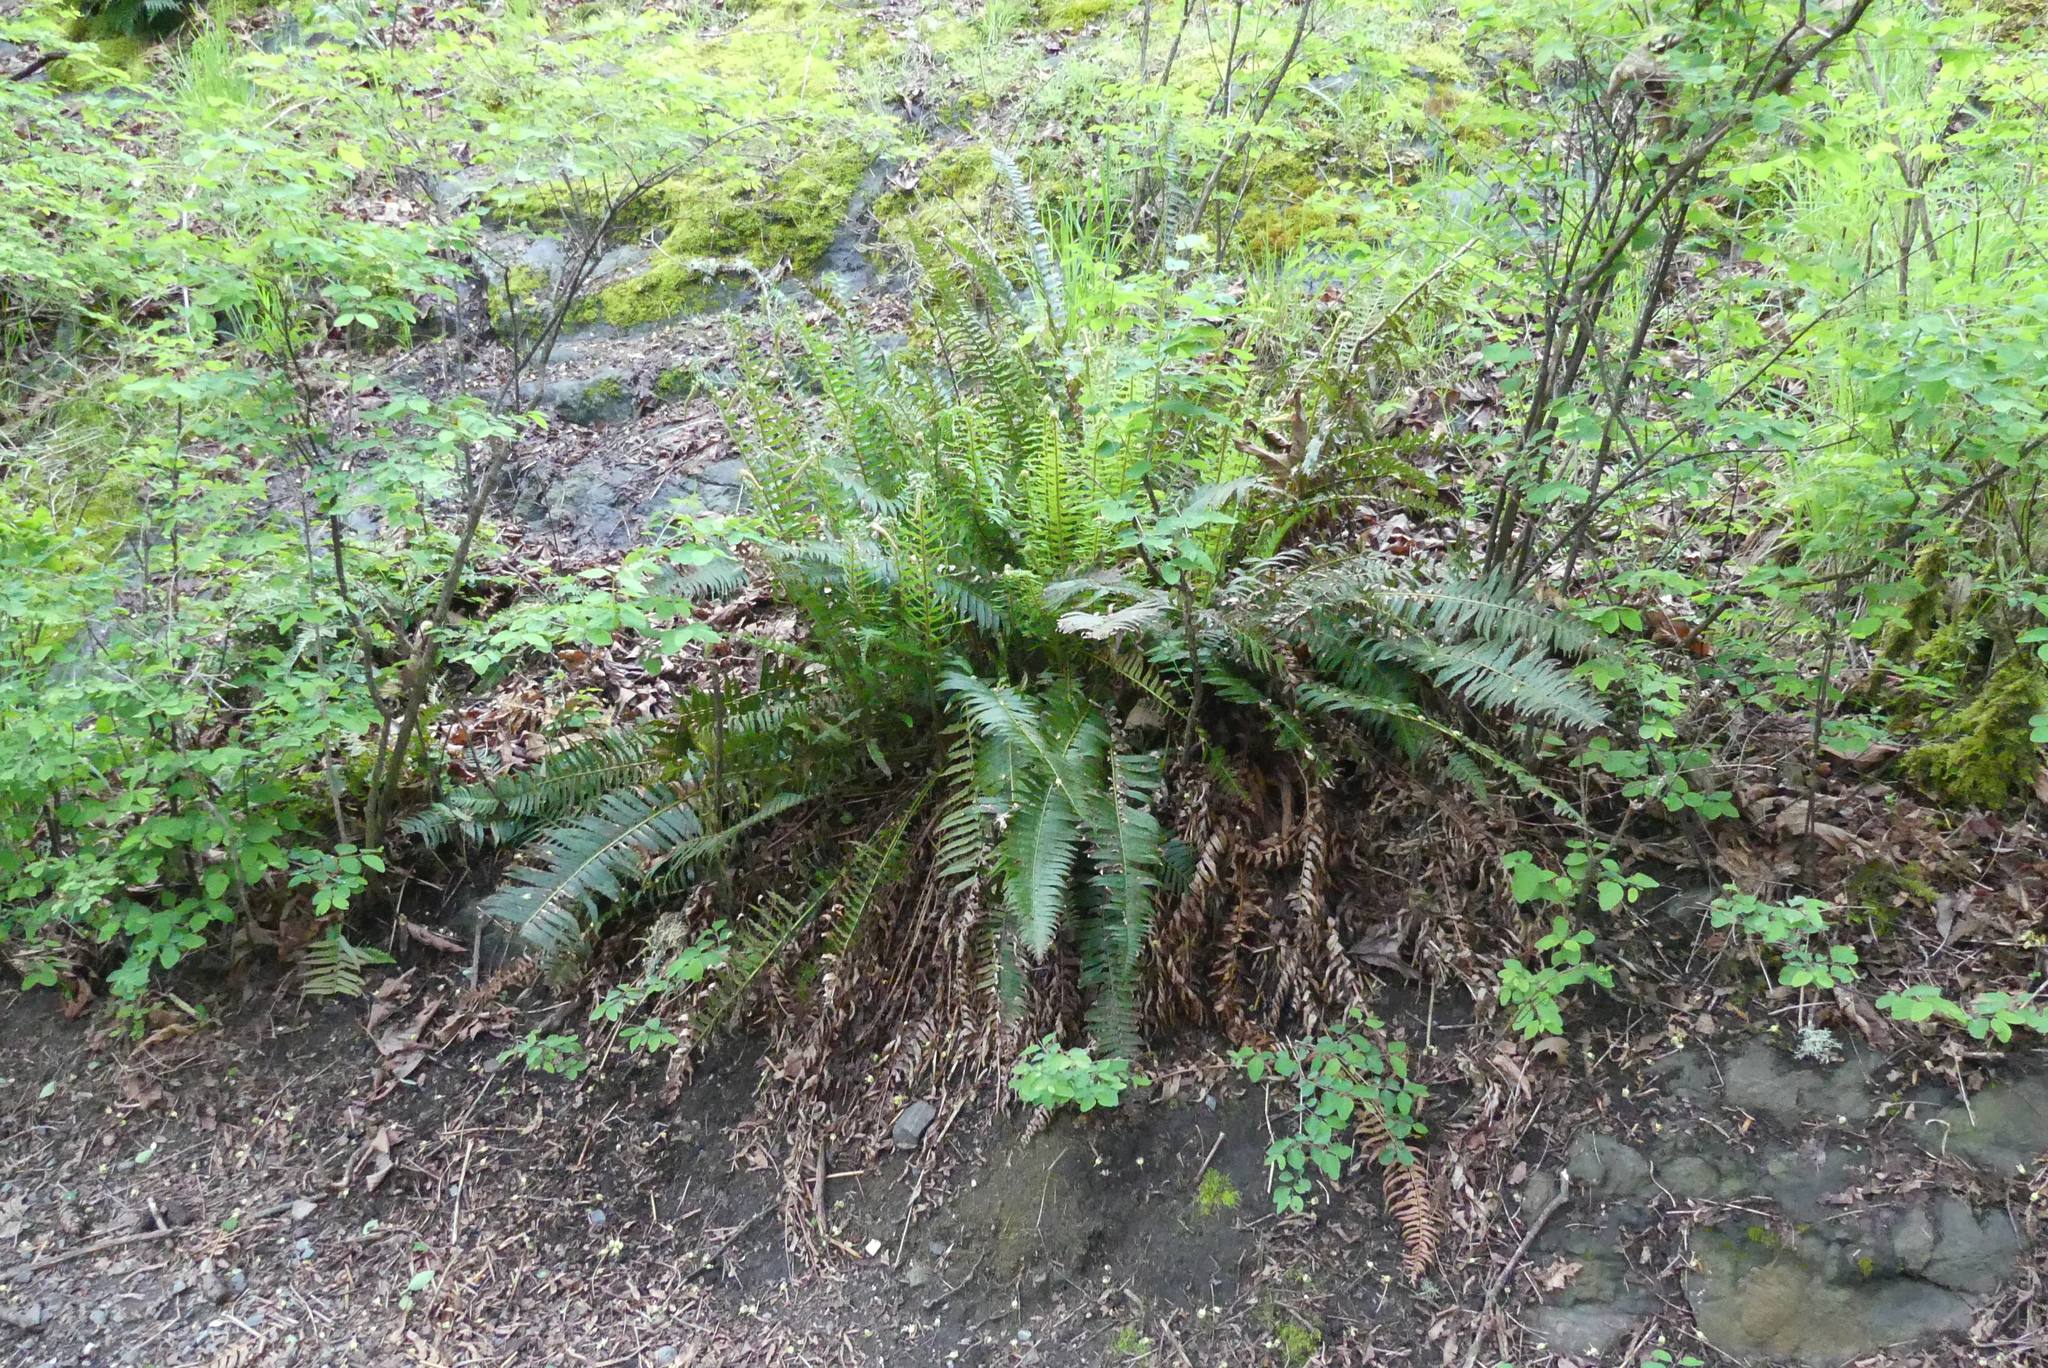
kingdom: Plantae
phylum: Tracheophyta
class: Polypodiopsida
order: Polypodiales
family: Dryopteridaceae
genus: Polystichum
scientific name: Polystichum munitum
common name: Western sword-fern
